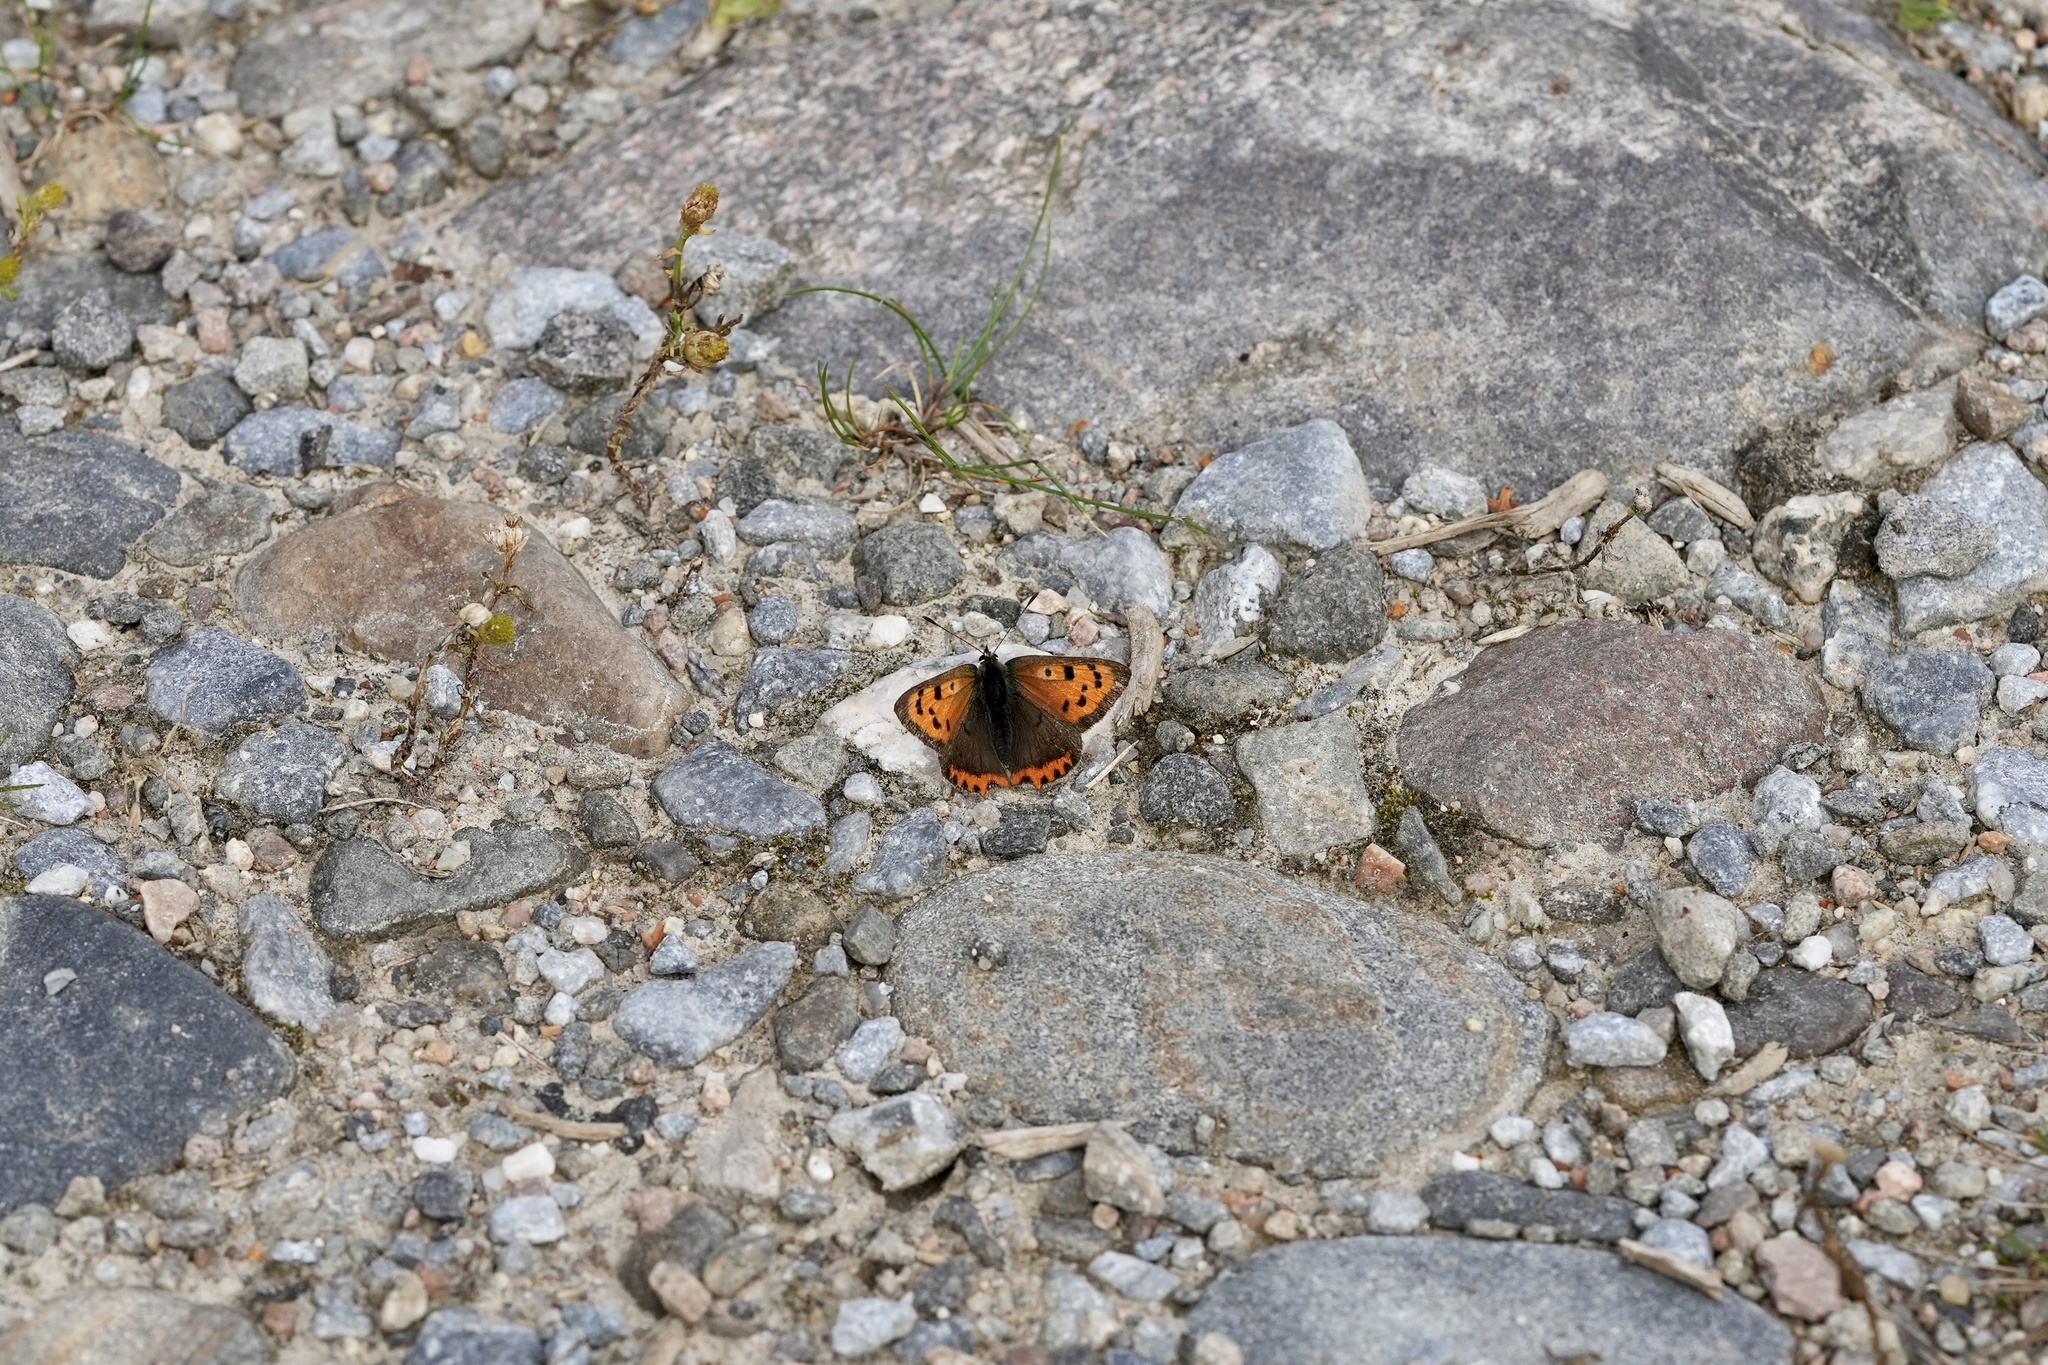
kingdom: Animalia
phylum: Arthropoda
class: Insecta
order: Lepidoptera
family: Lycaenidae
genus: Lycaena
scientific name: Lycaena phlaeas
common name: Small copper
